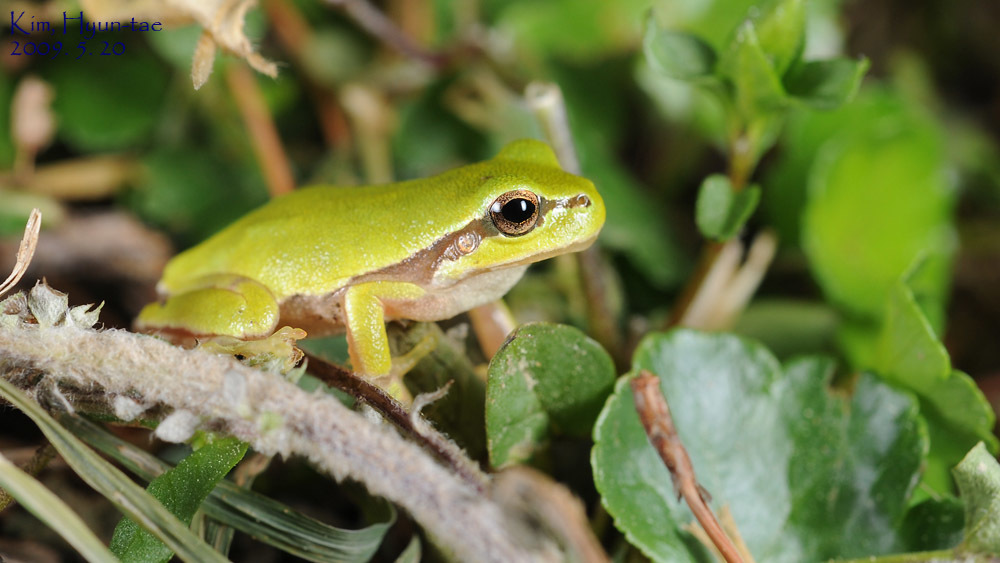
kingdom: Animalia
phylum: Chordata
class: Amphibia
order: Anura
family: Hylidae
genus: Dryophytes
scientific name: Dryophytes japonicus
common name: Japanese treefrog
